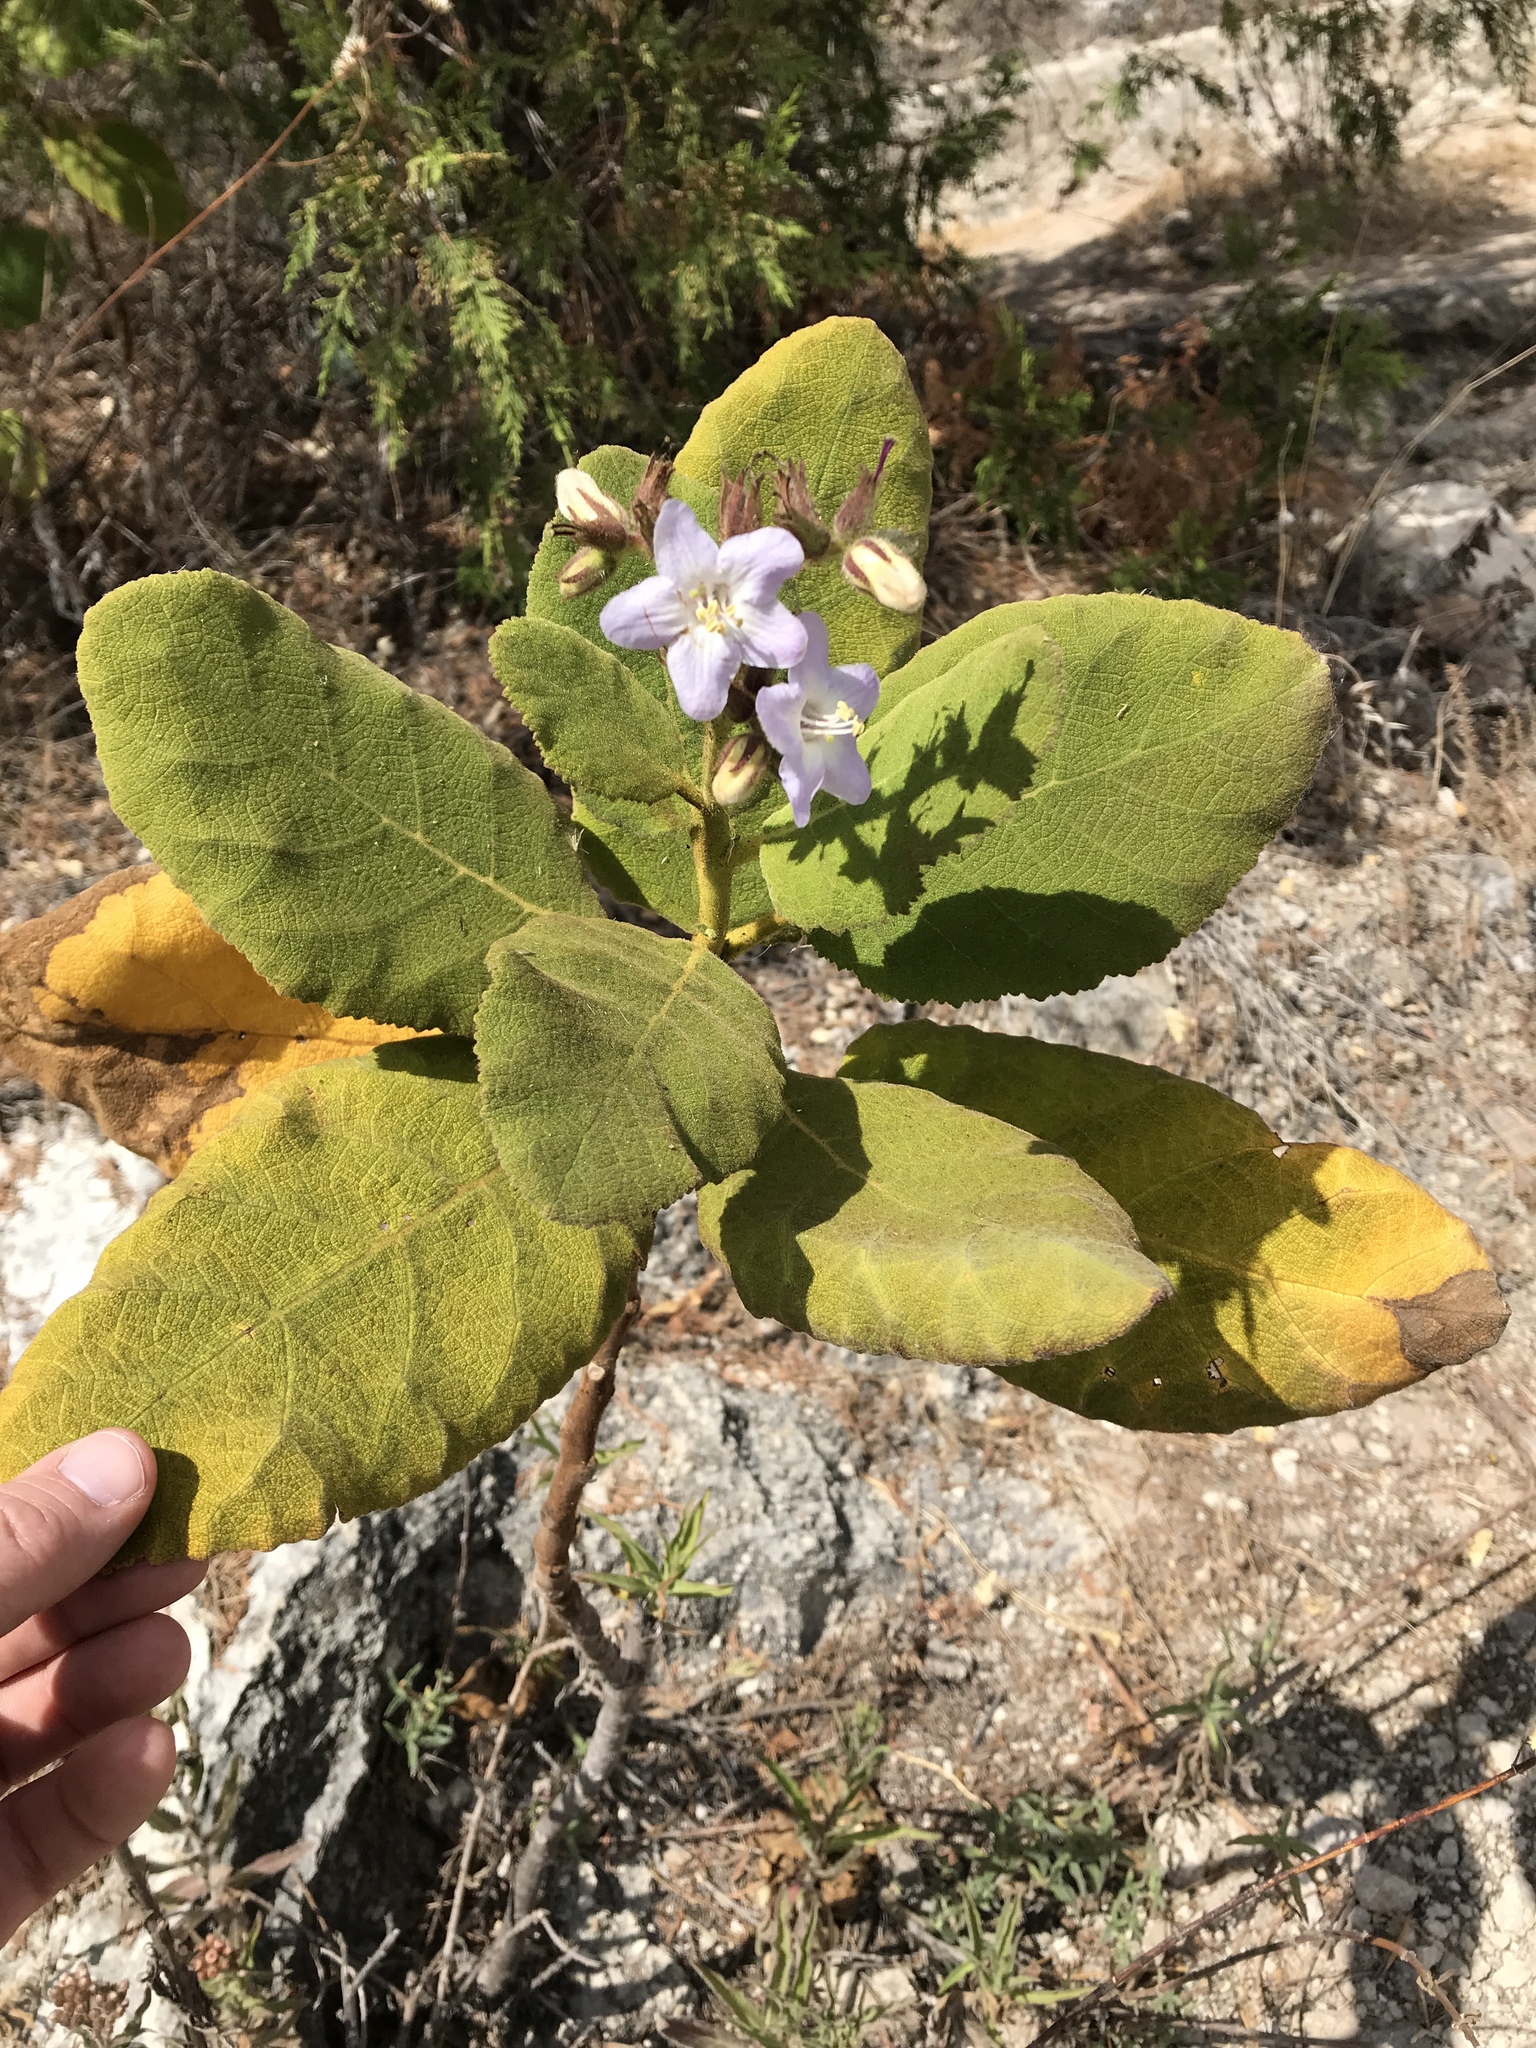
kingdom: Plantae
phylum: Tracheophyta
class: Magnoliopsida
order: Boraginales
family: Namaceae
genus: Wigandia
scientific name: Wigandia urens
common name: Caracus wigandia
